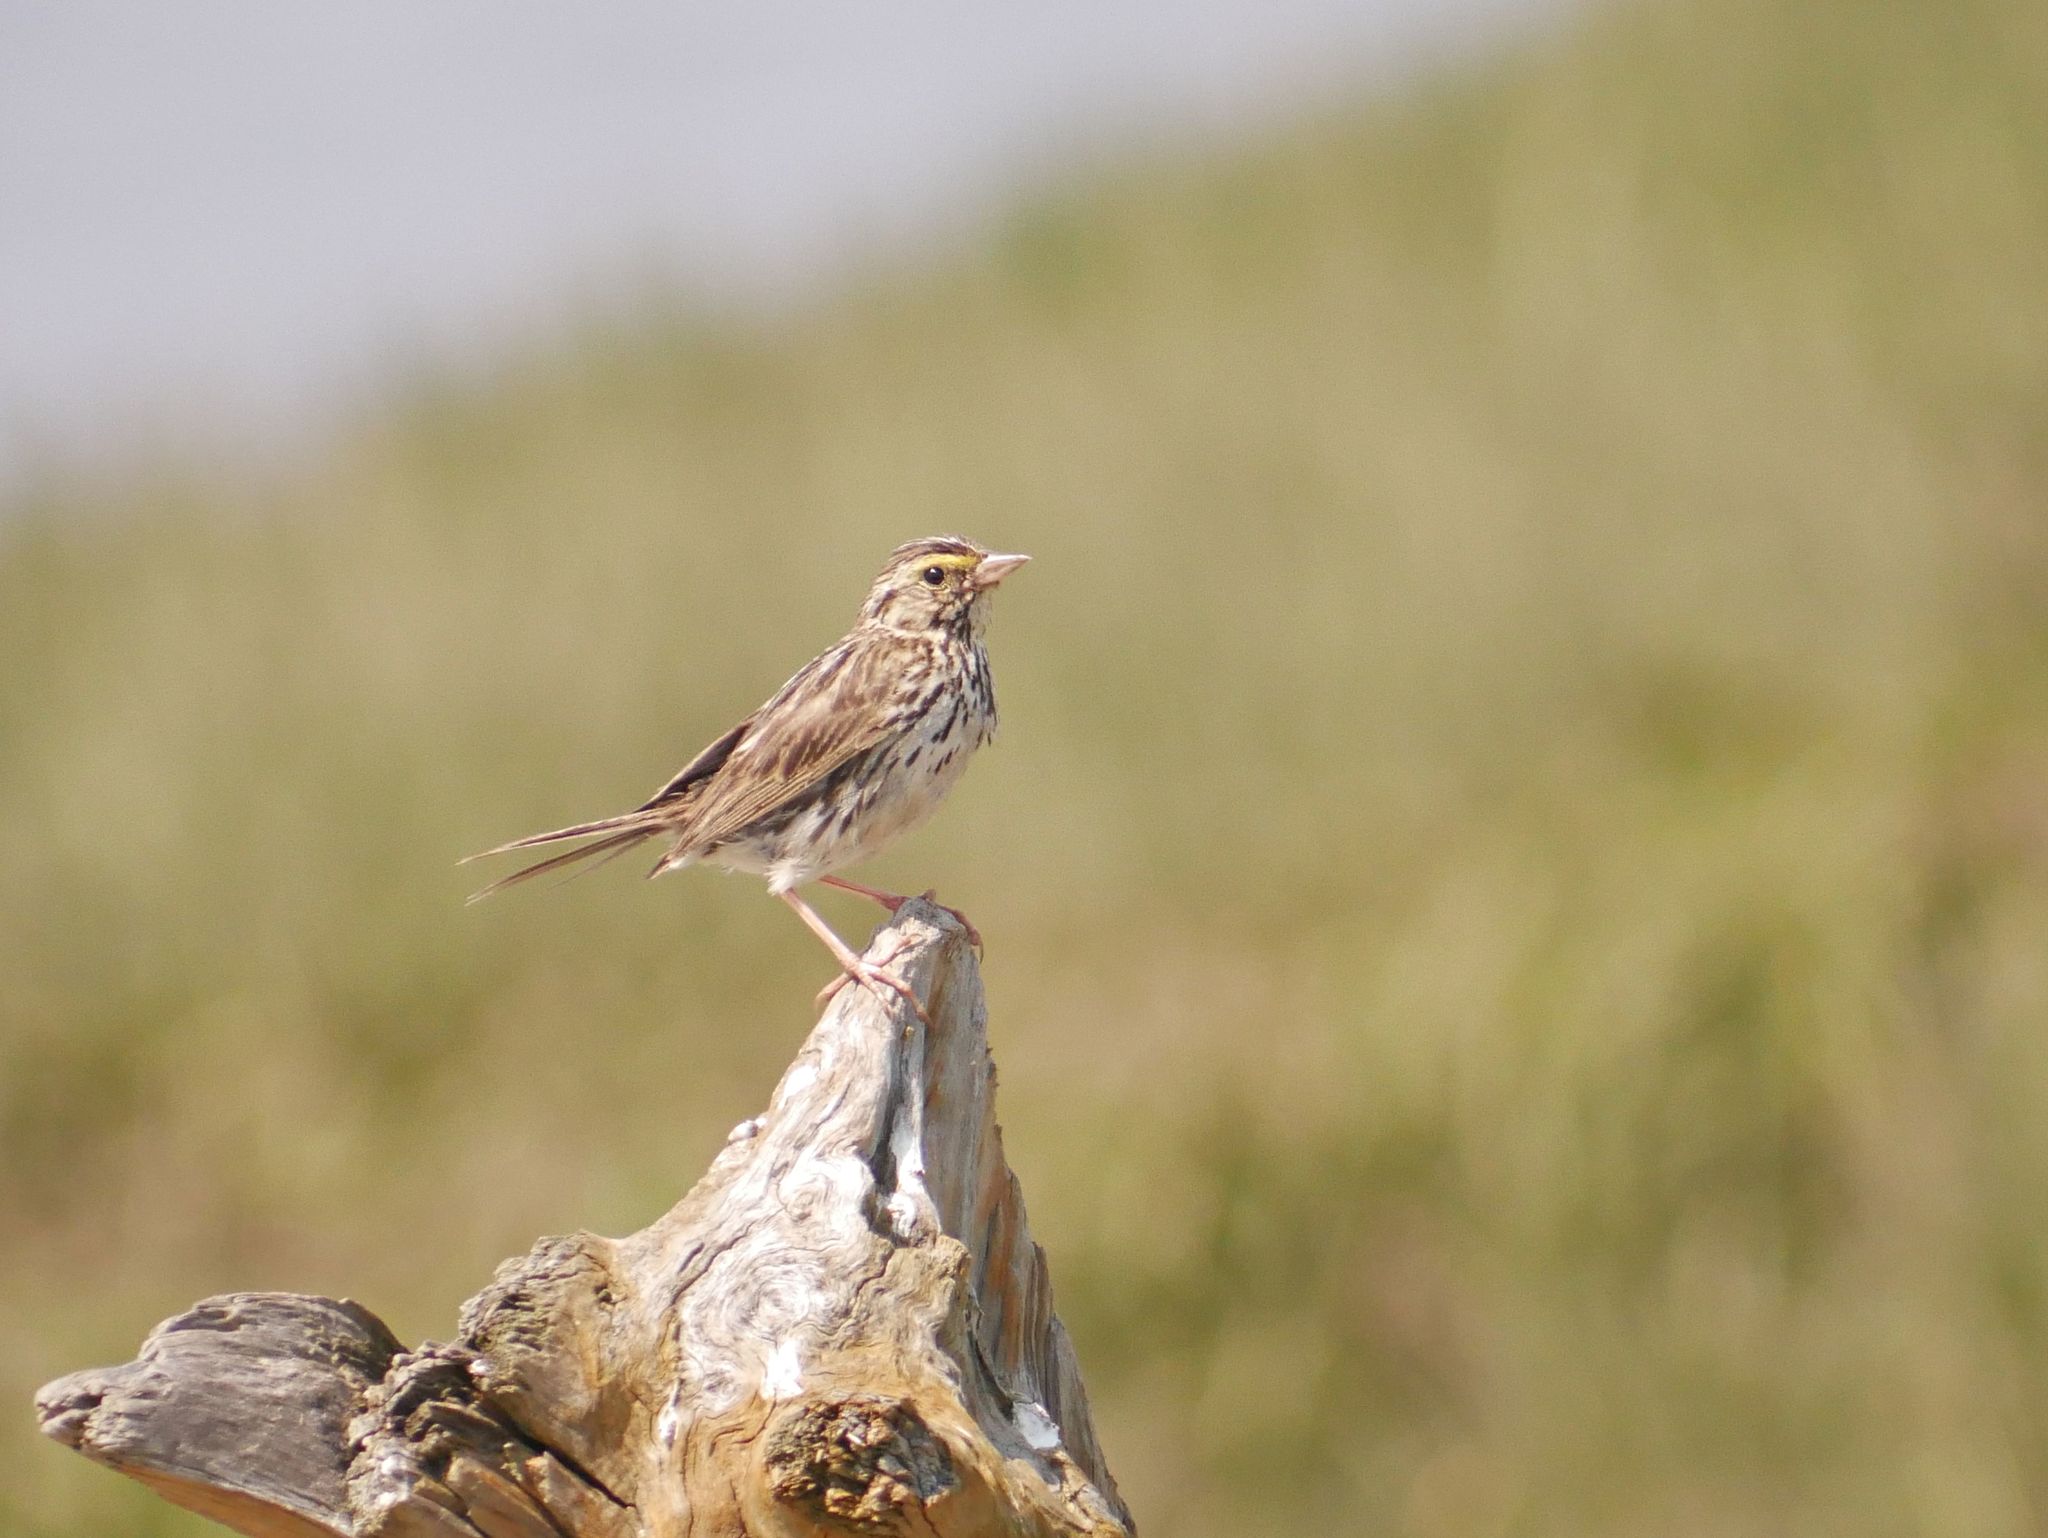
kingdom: Animalia
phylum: Chordata
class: Aves
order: Passeriformes
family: Passerellidae
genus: Passerculus
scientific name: Passerculus sandwichensis
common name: Savannah sparrow
